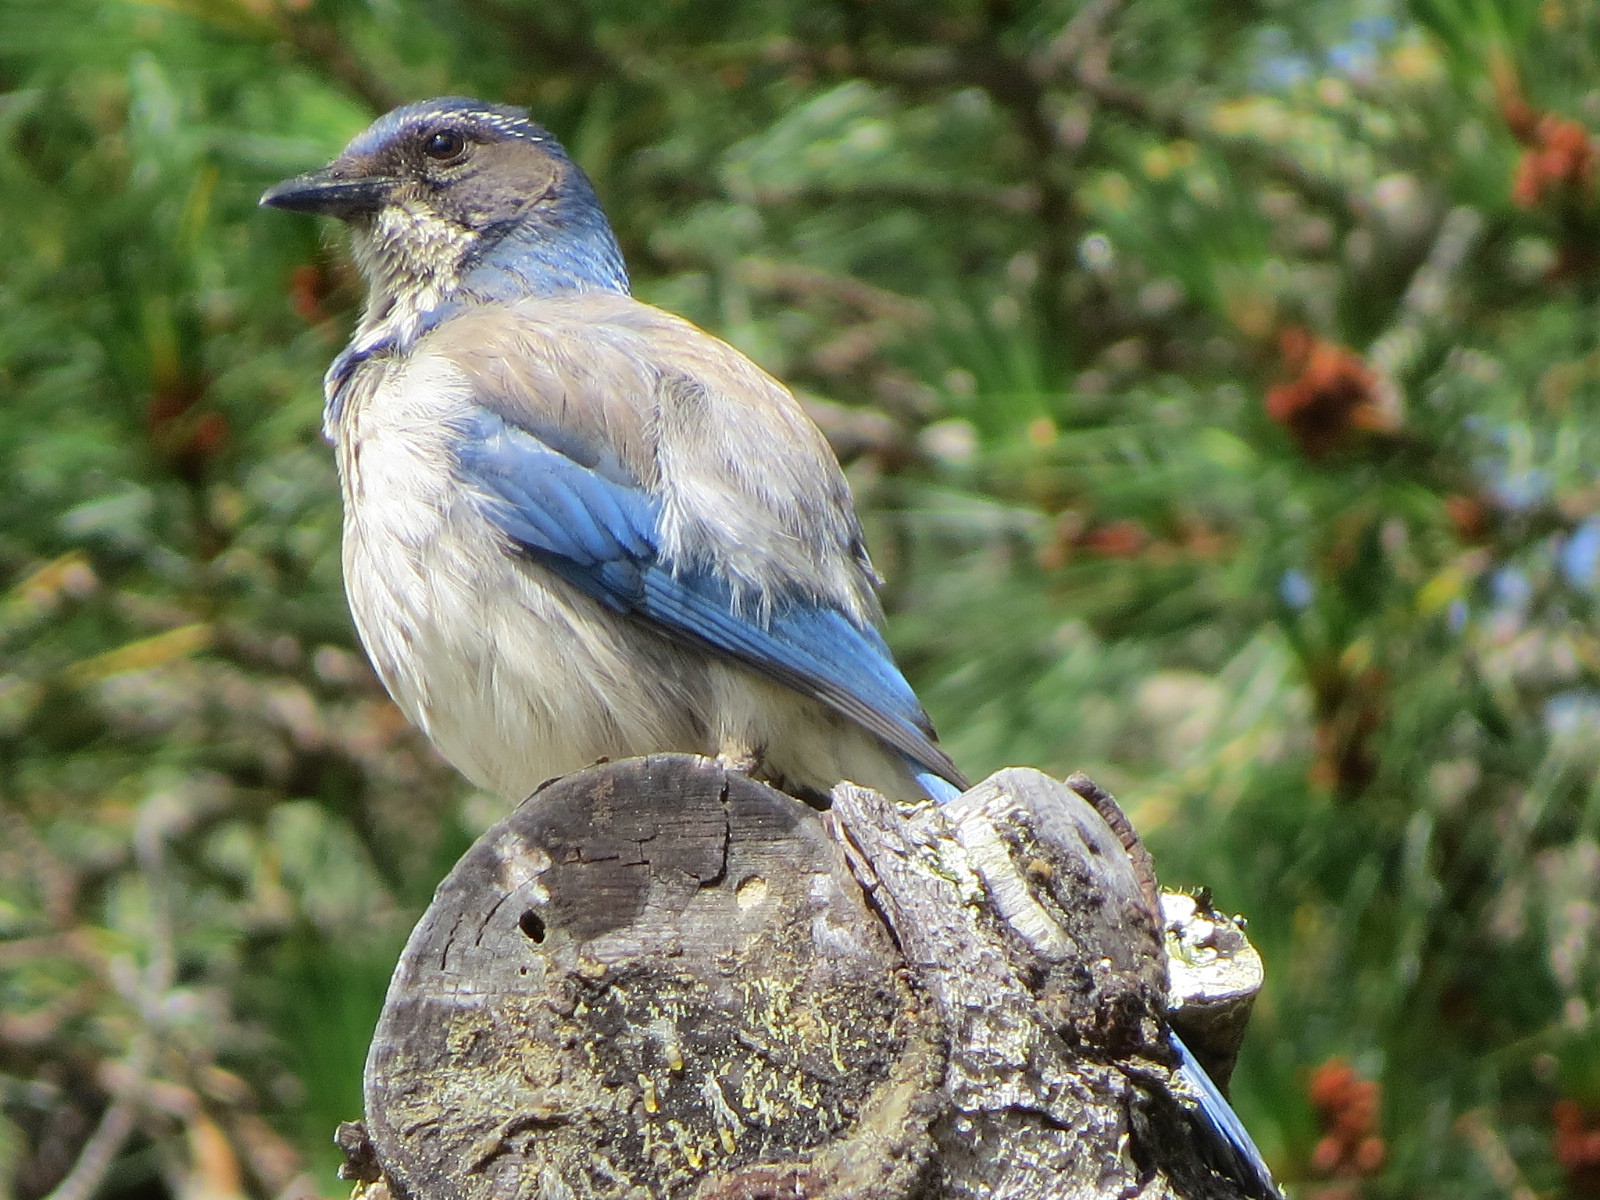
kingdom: Animalia
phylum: Chordata
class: Aves
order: Passeriformes
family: Corvidae
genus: Aphelocoma
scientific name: Aphelocoma californica
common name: California scrub-jay
